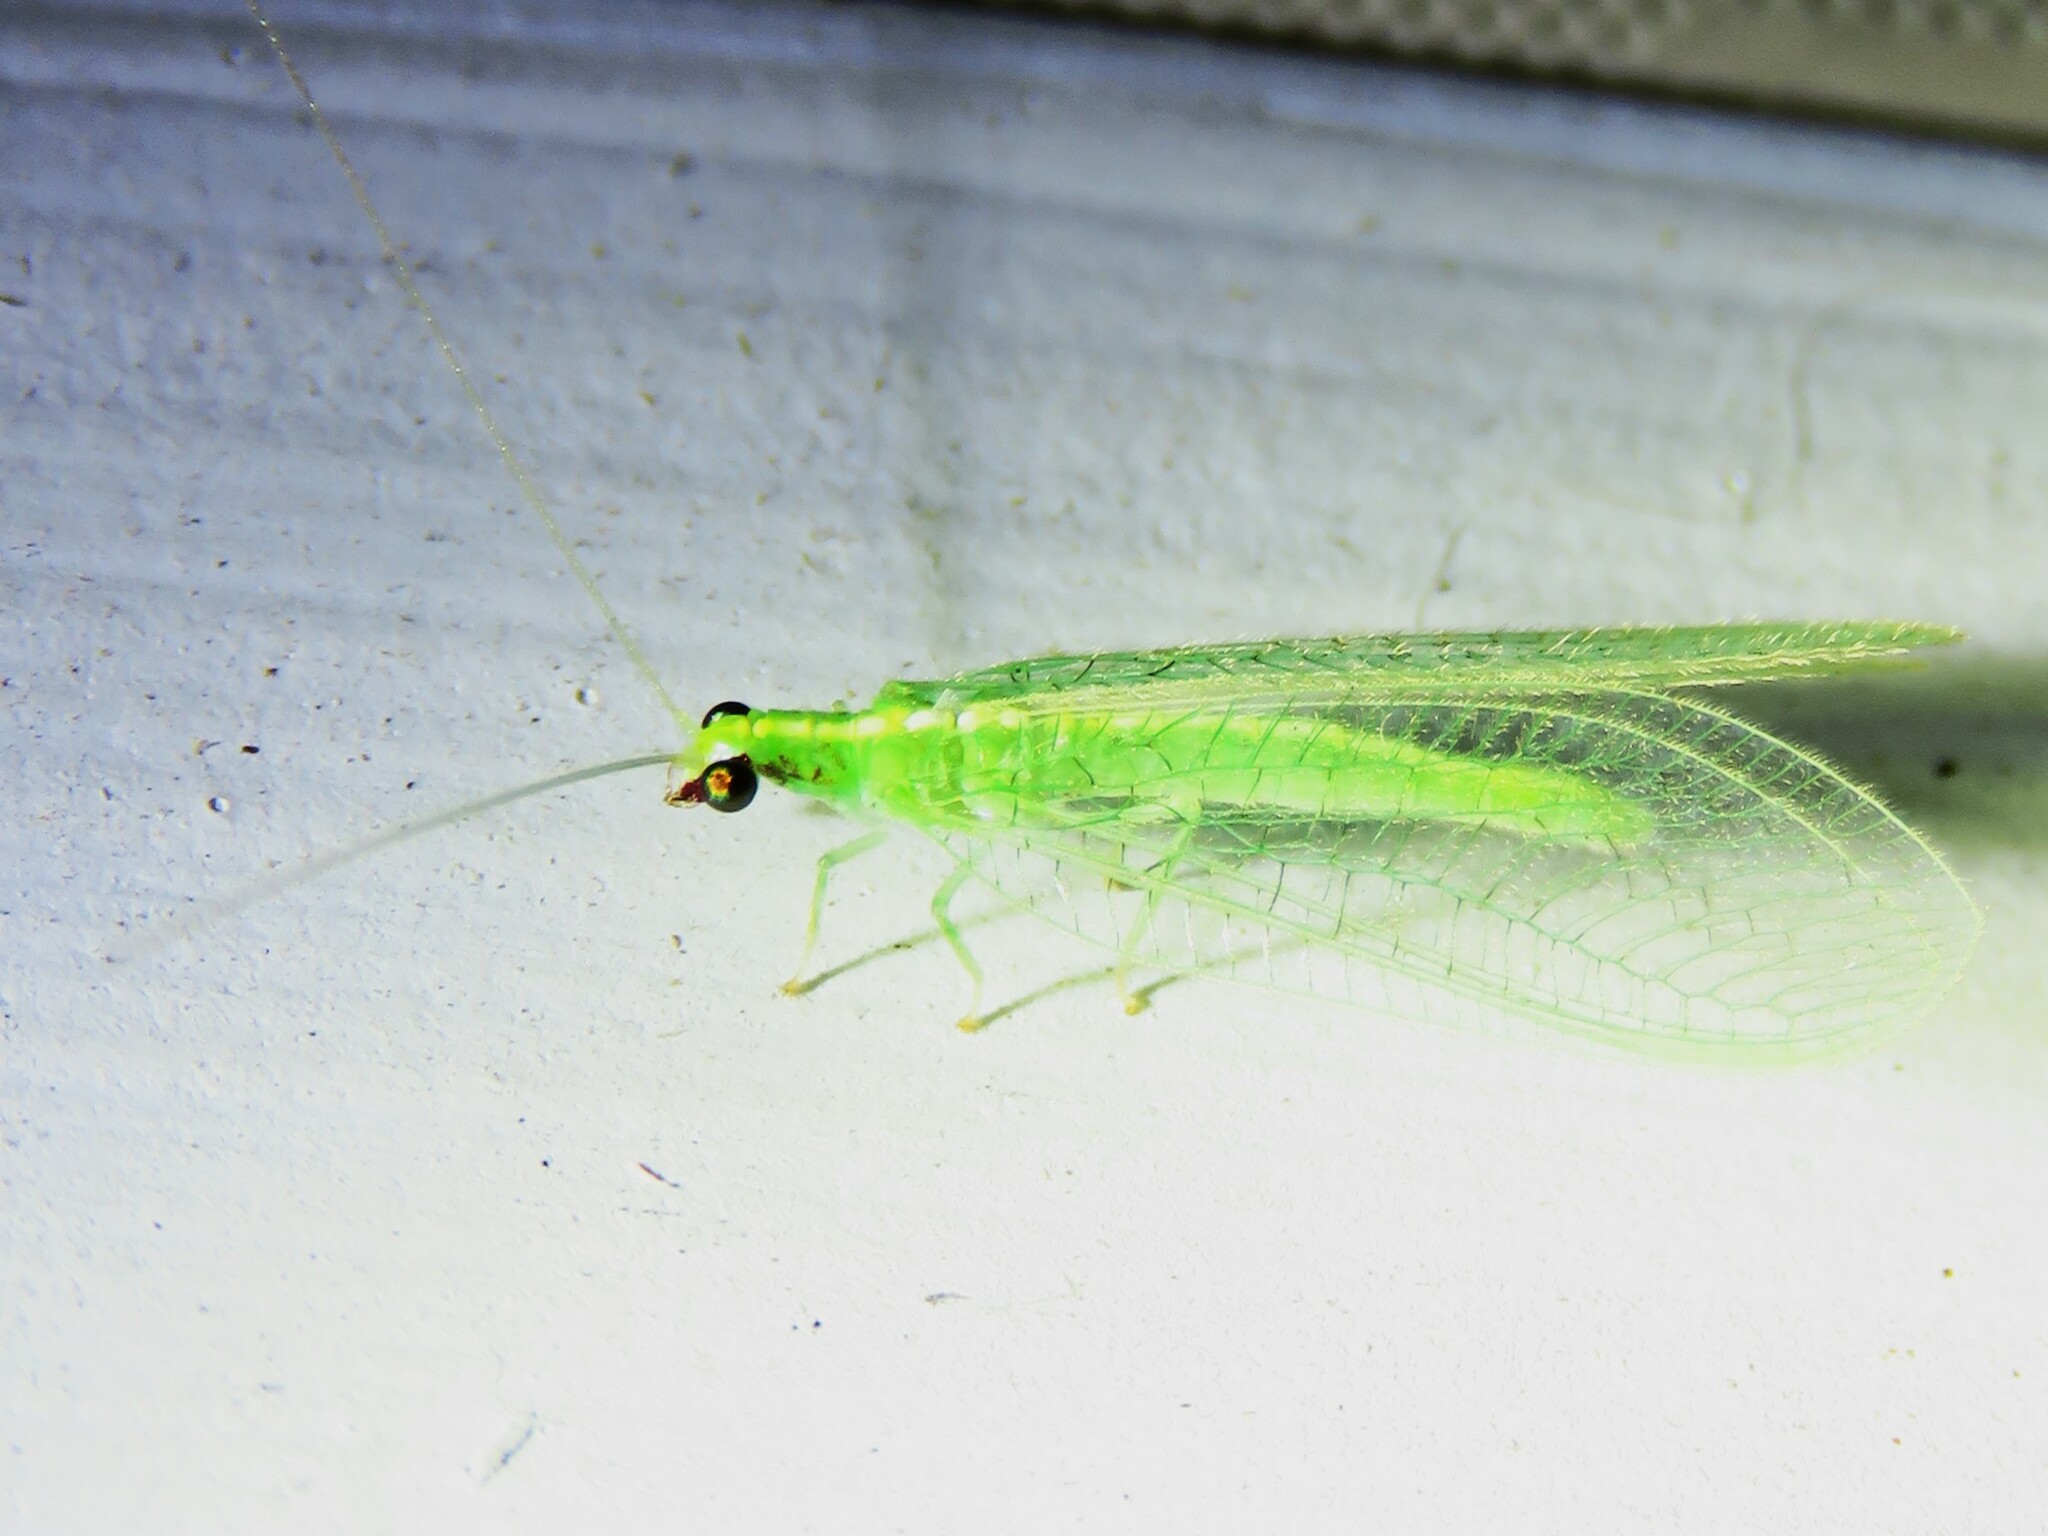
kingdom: Animalia
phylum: Arthropoda
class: Insecta
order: Neuroptera
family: Chrysopidae
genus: Chrysoperla
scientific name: Chrysoperla rufilabris
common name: Red-lipped green lacewing
